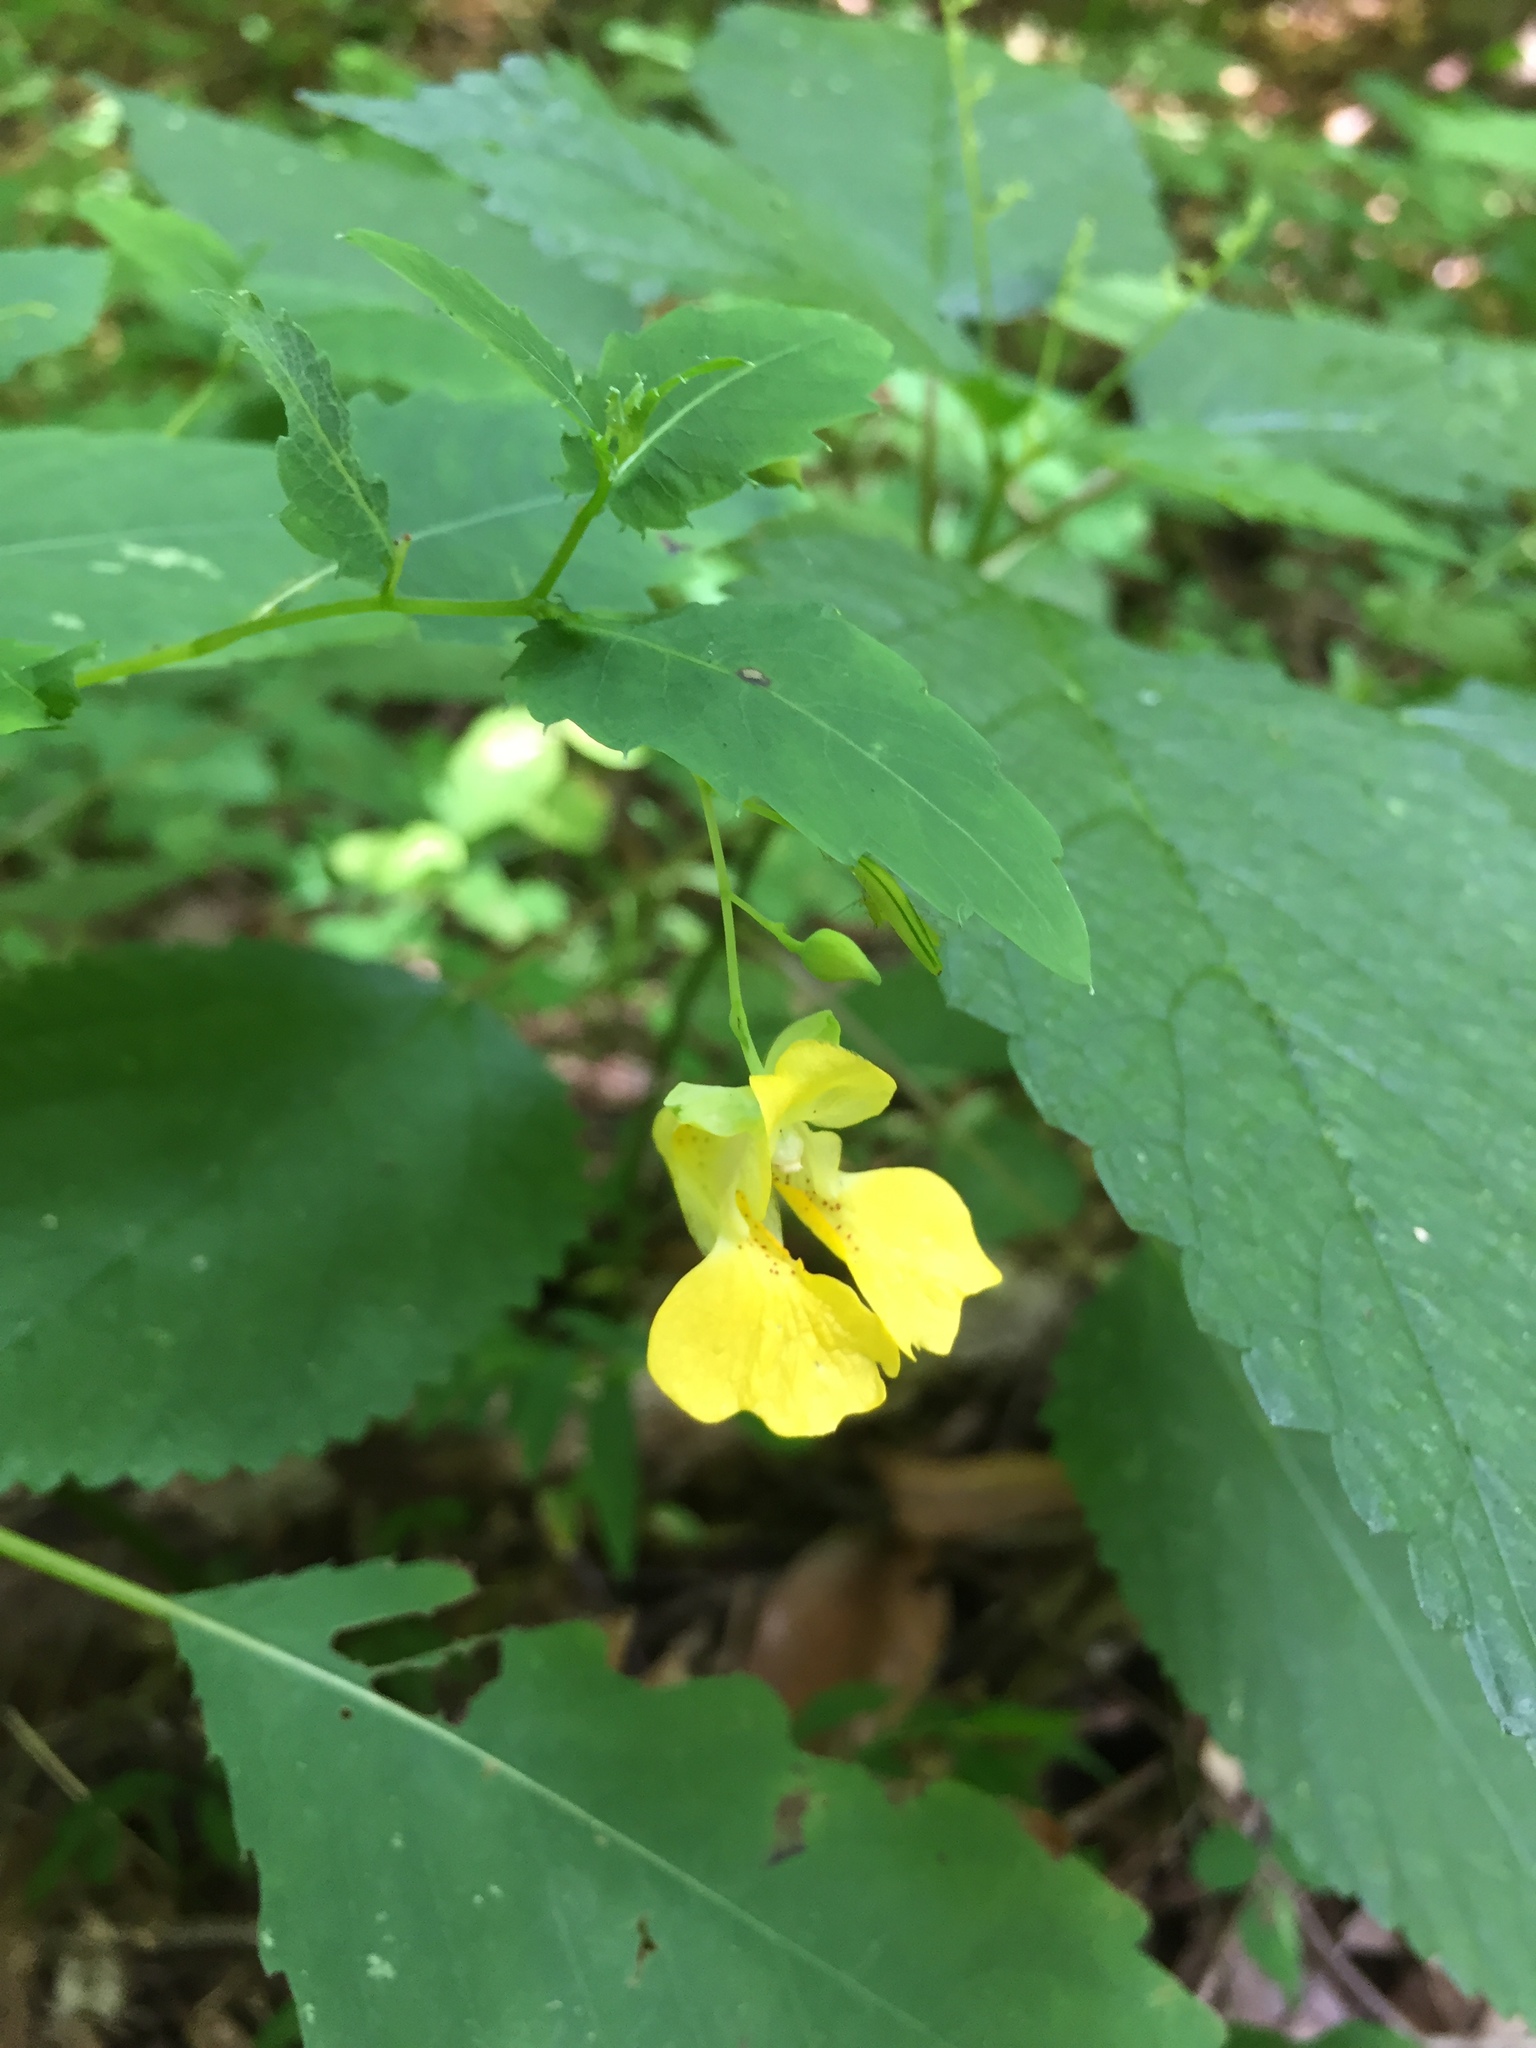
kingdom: Plantae
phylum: Tracheophyta
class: Magnoliopsida
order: Ericales
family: Balsaminaceae
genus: Impatiens
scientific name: Impatiens pallida
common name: Pale snapweed
